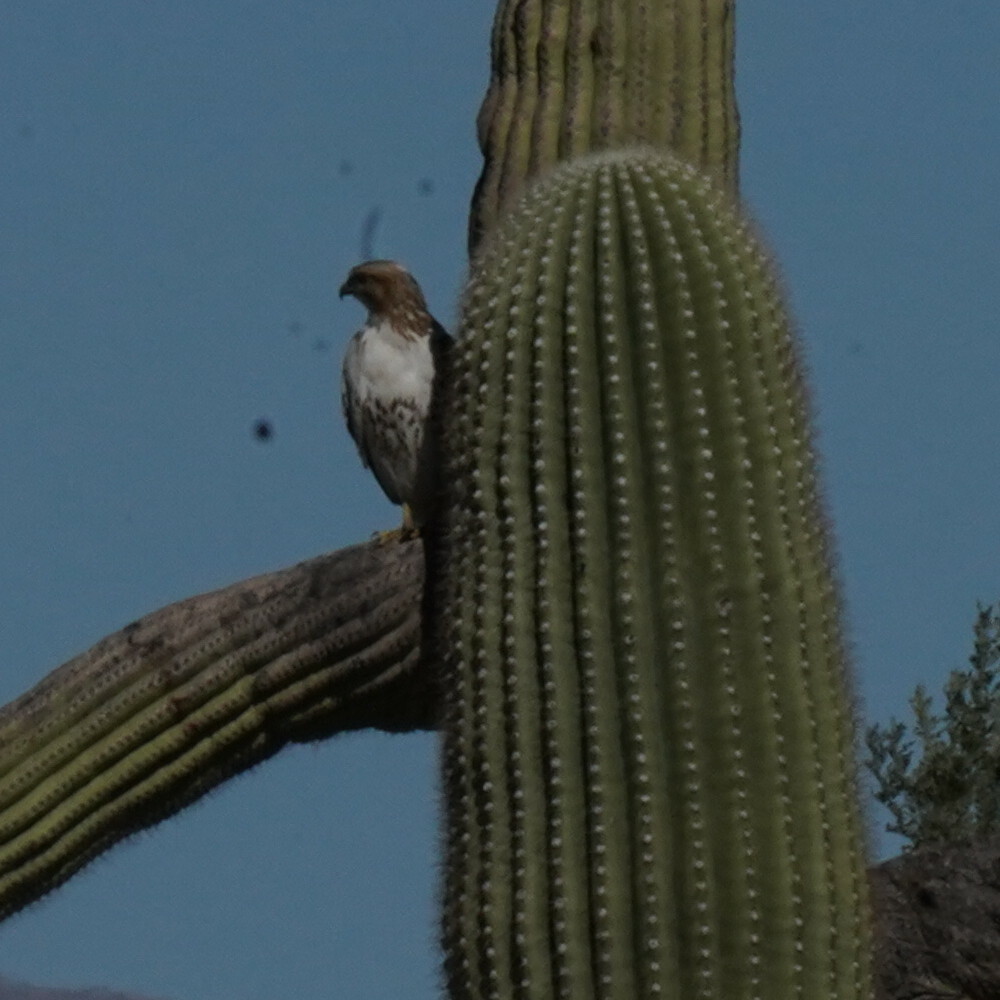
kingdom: Animalia
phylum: Chordata
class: Aves
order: Accipitriformes
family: Accipitridae
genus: Buteo
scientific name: Buteo jamaicensis
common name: Red-tailed hawk
